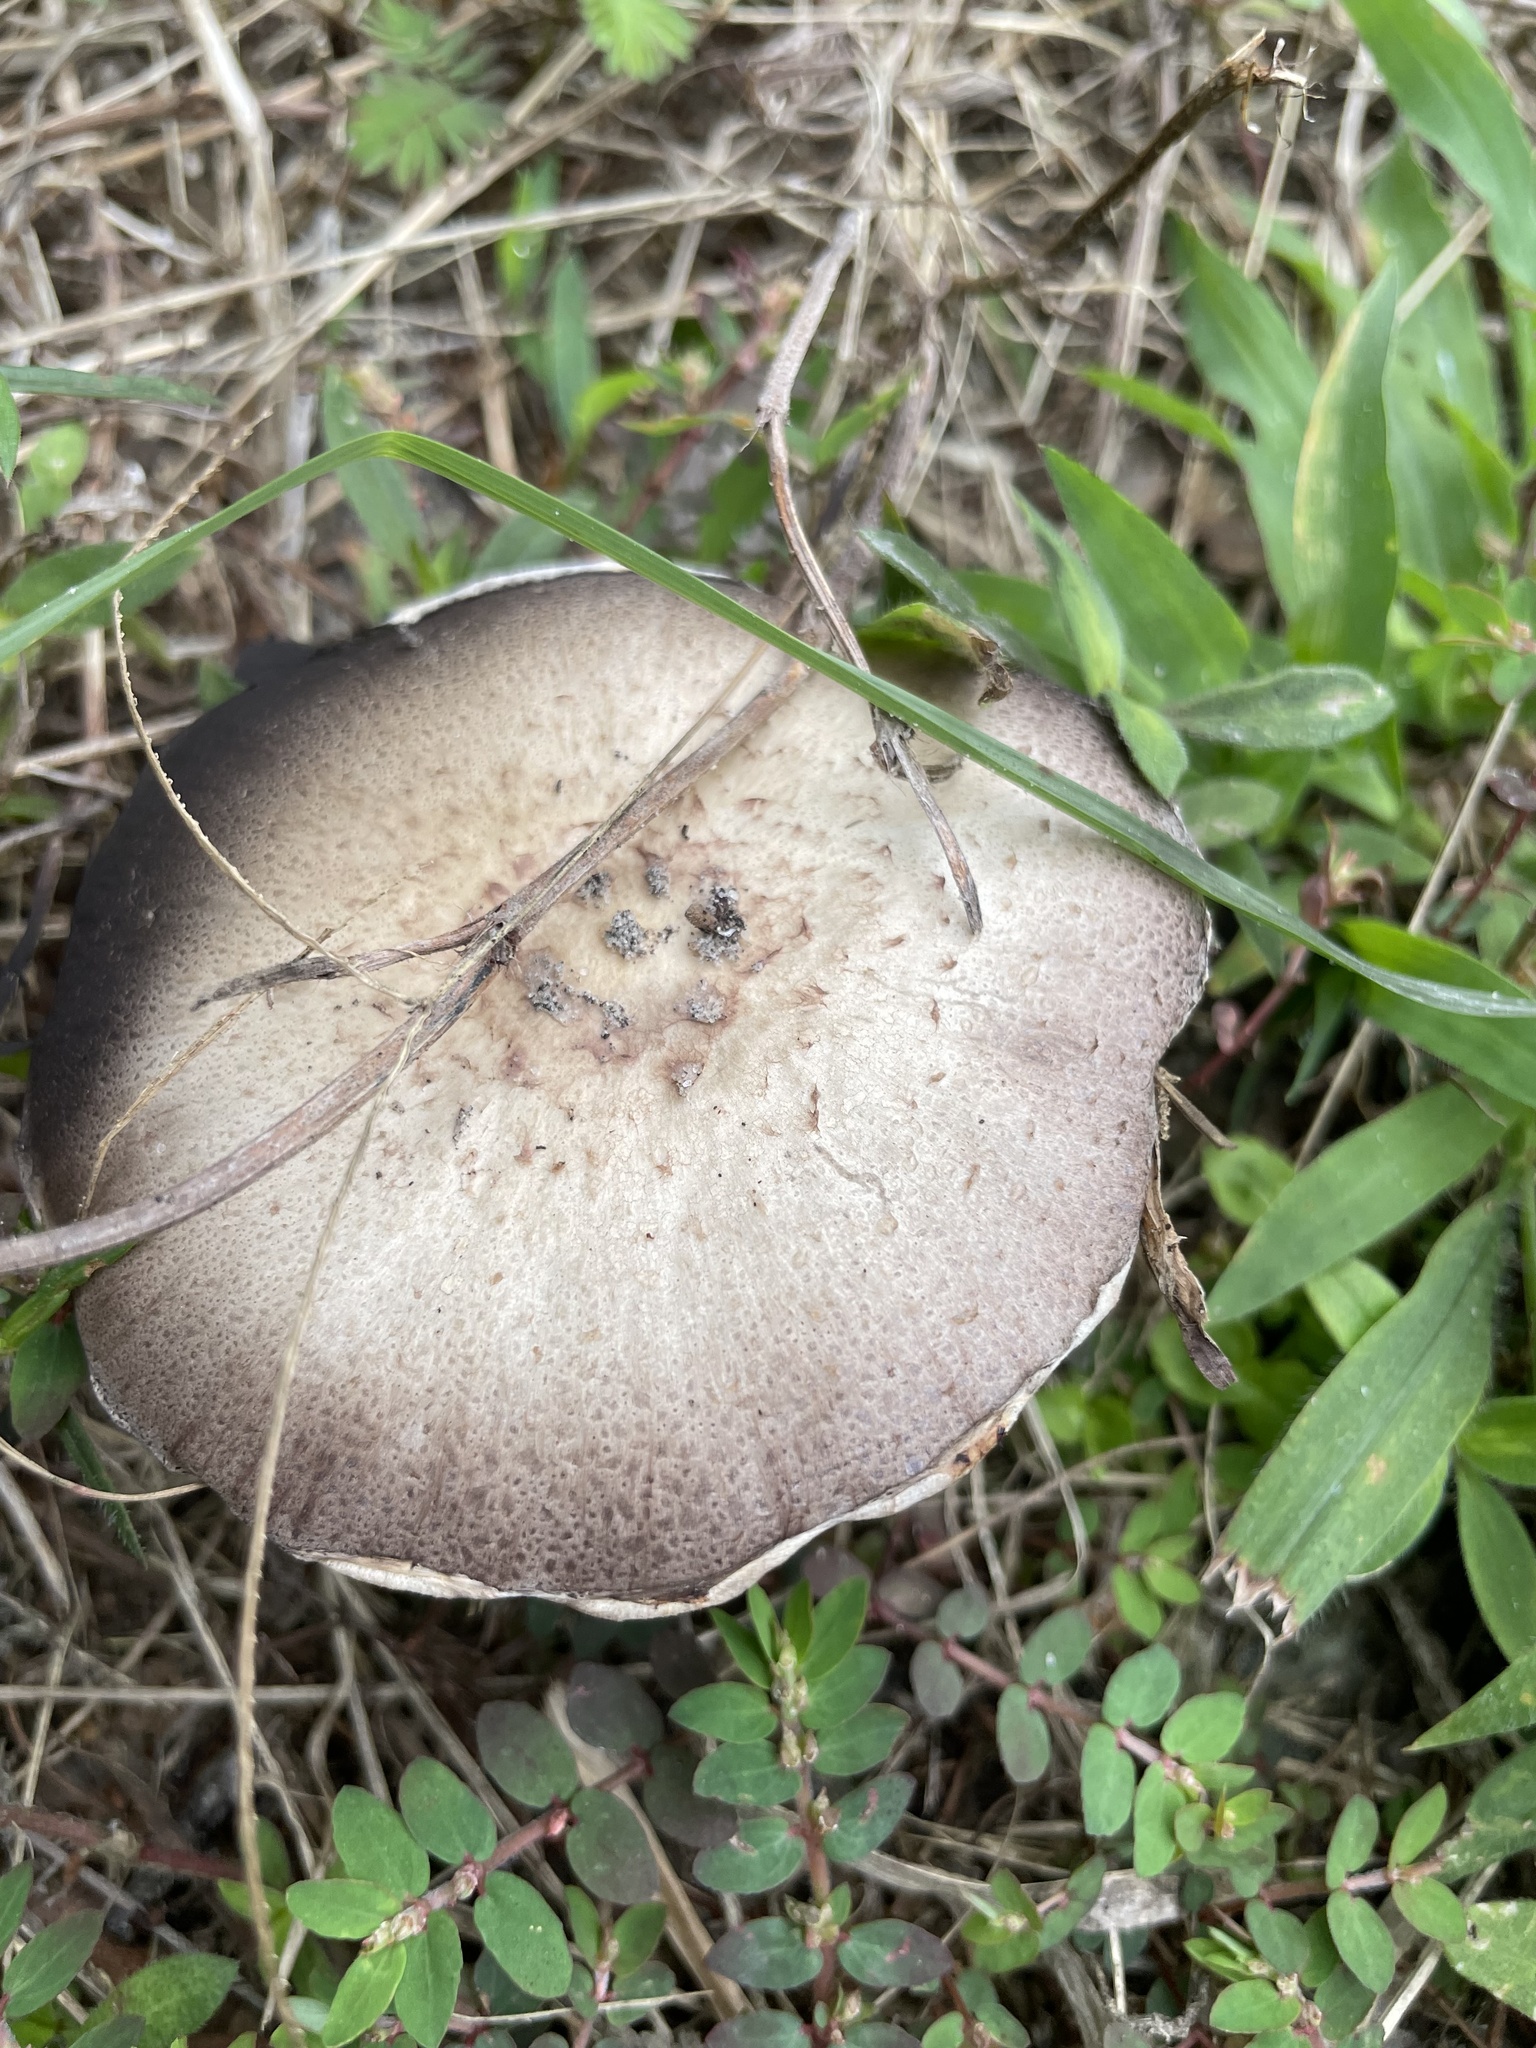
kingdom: Fungi
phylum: Basidiomycota
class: Agaricomycetes
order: Agaricales
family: Agaricaceae
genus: Agaricus
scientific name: Agaricus sylvicola
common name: Wood mushroom
